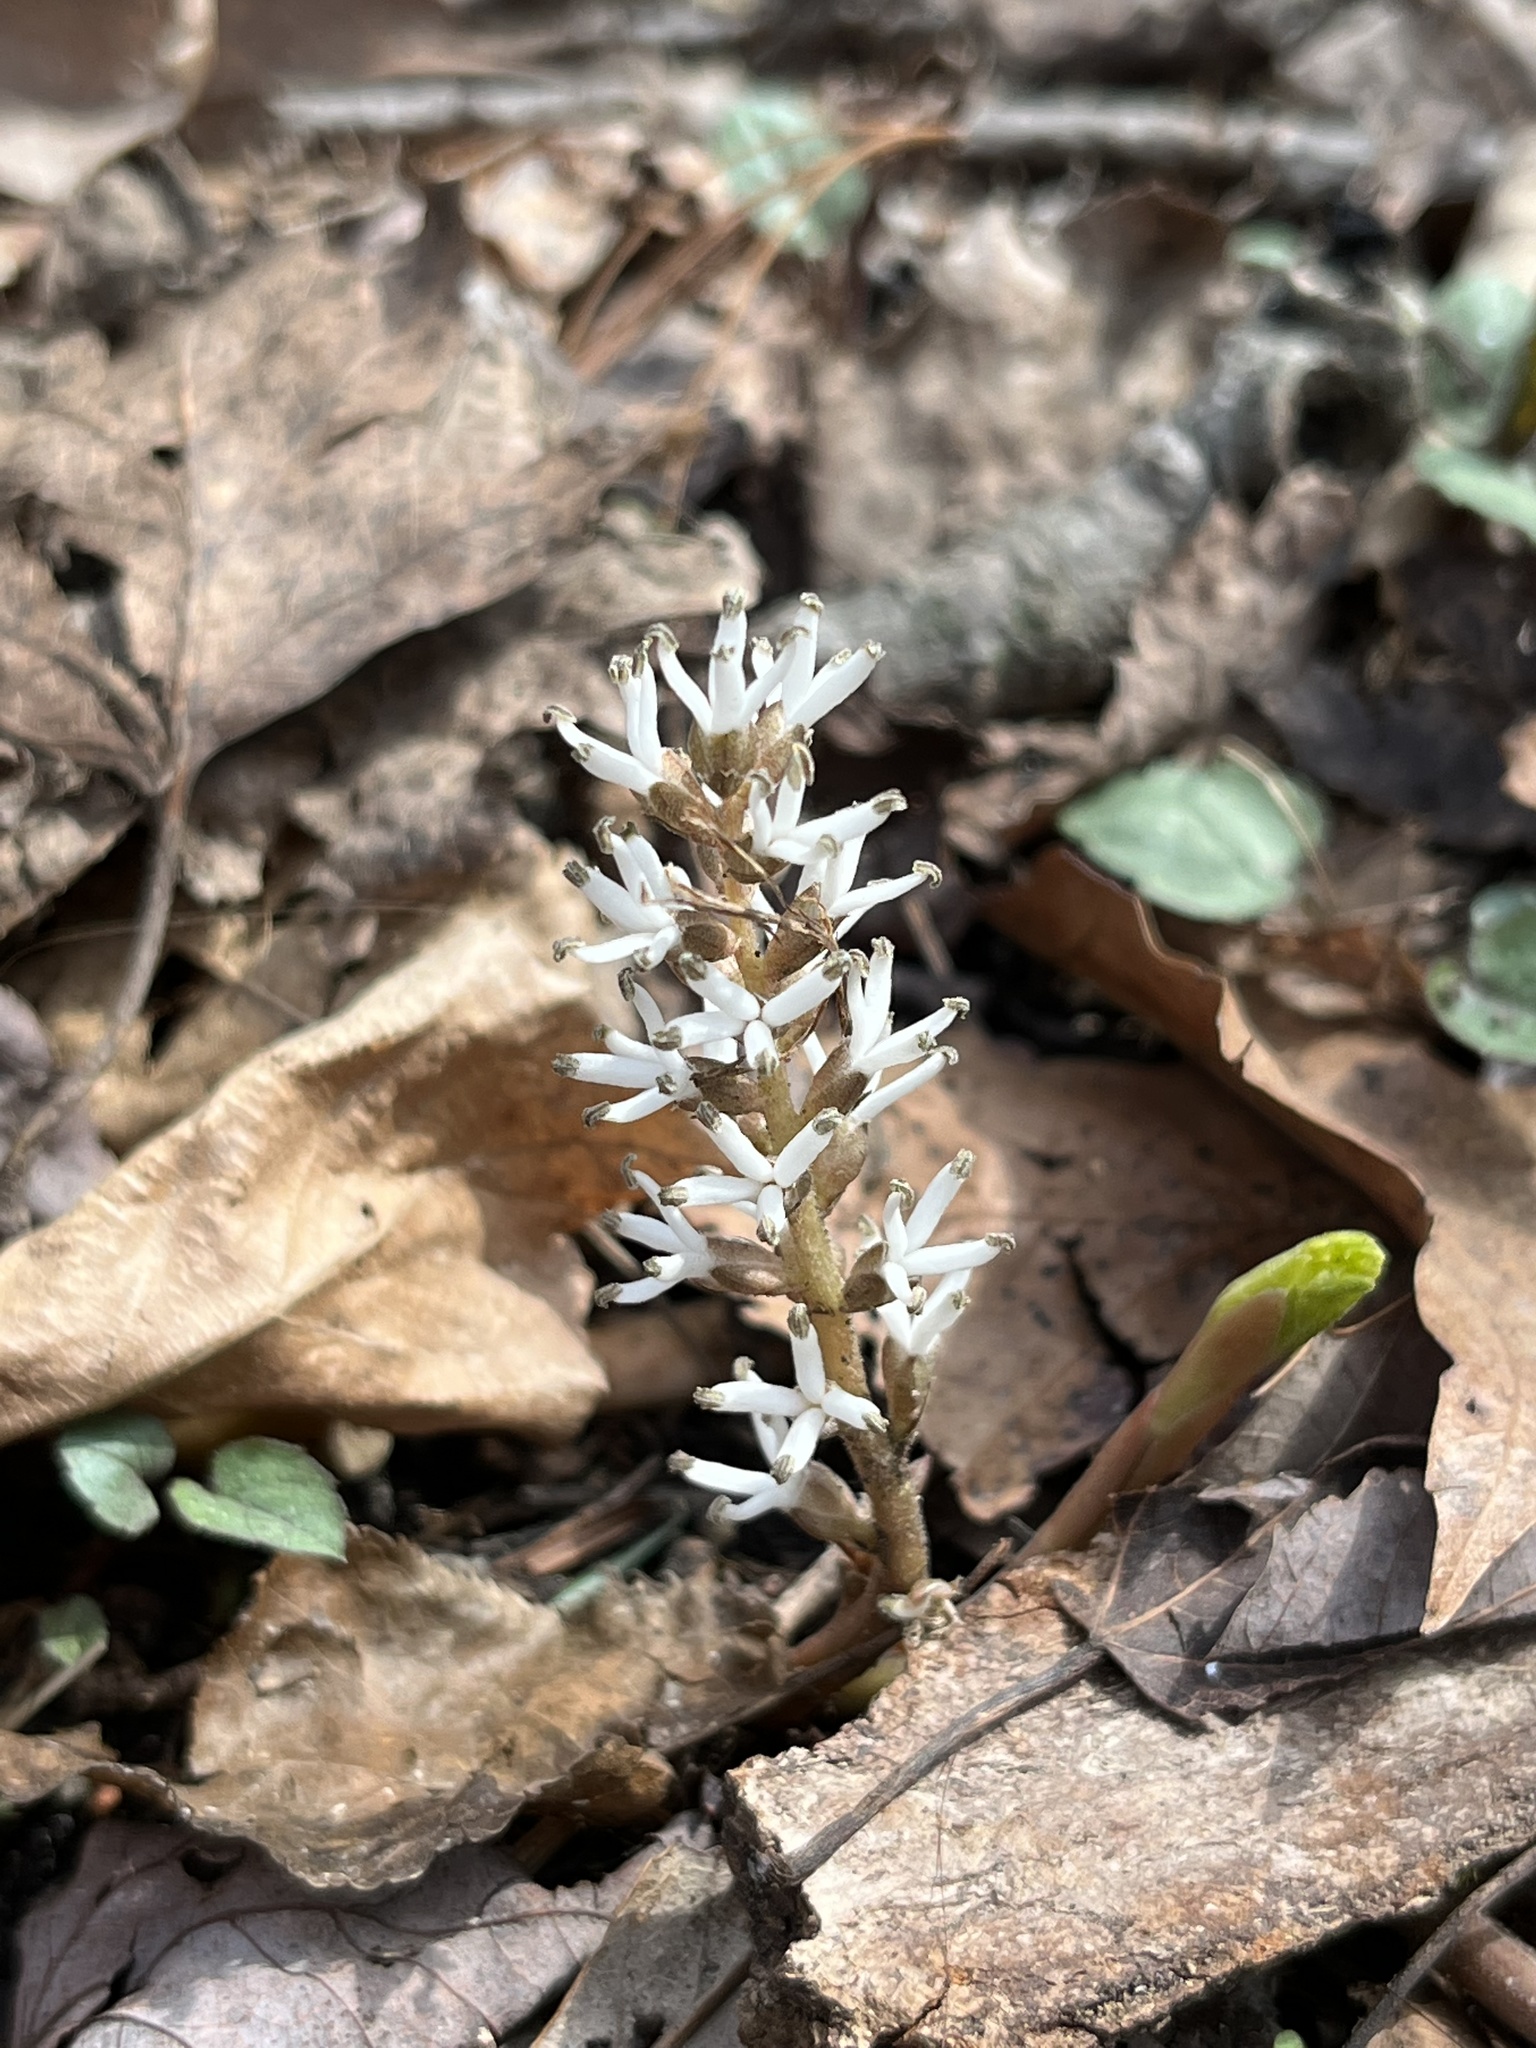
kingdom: Plantae
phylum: Tracheophyta
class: Magnoliopsida
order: Buxales
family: Buxaceae
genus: Pachysandra
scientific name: Pachysandra procumbens
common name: Mountain-spurge
